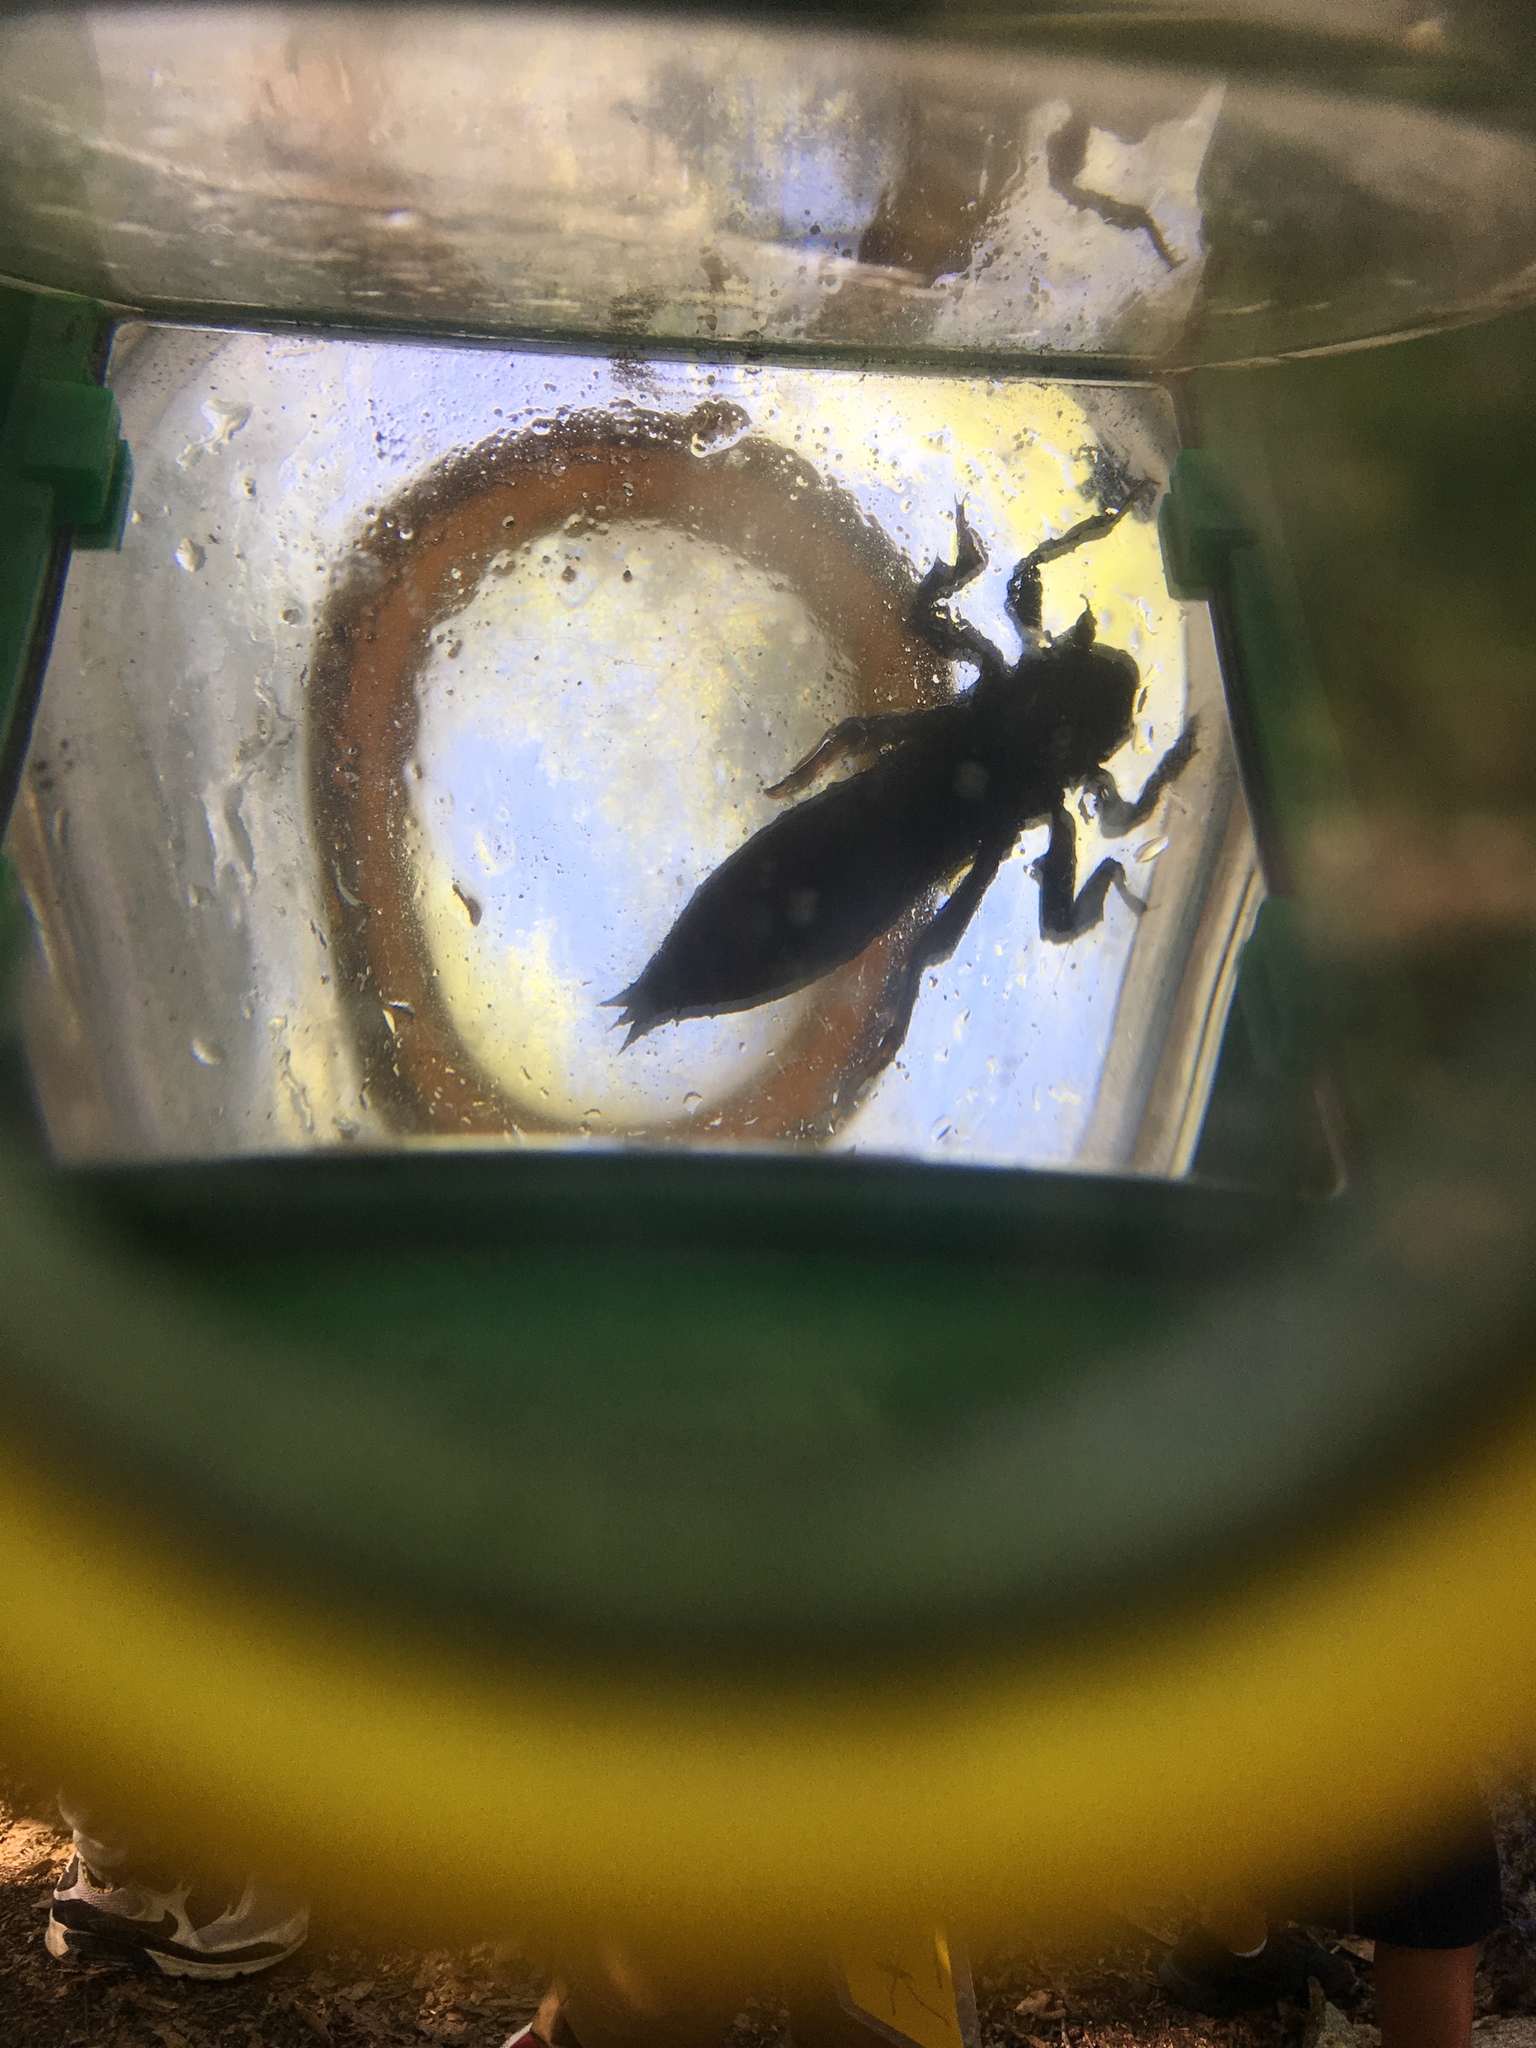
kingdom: Animalia
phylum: Arthropoda
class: Insecta
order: Odonata
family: Cordulegastridae
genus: Cordulegaster
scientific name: Cordulegaster dorsalis
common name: Pacific spiketail
